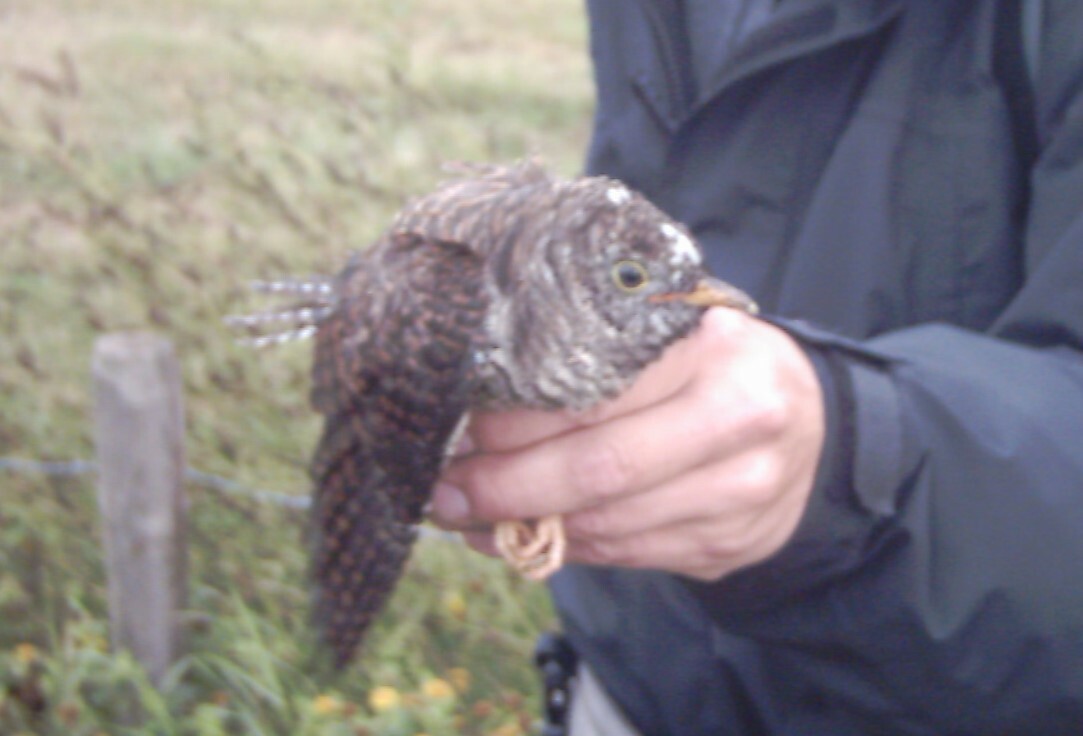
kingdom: Animalia
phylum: Chordata
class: Aves
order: Cuculiformes
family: Cuculidae
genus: Cuculus
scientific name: Cuculus canorus
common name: Common cuckoo
